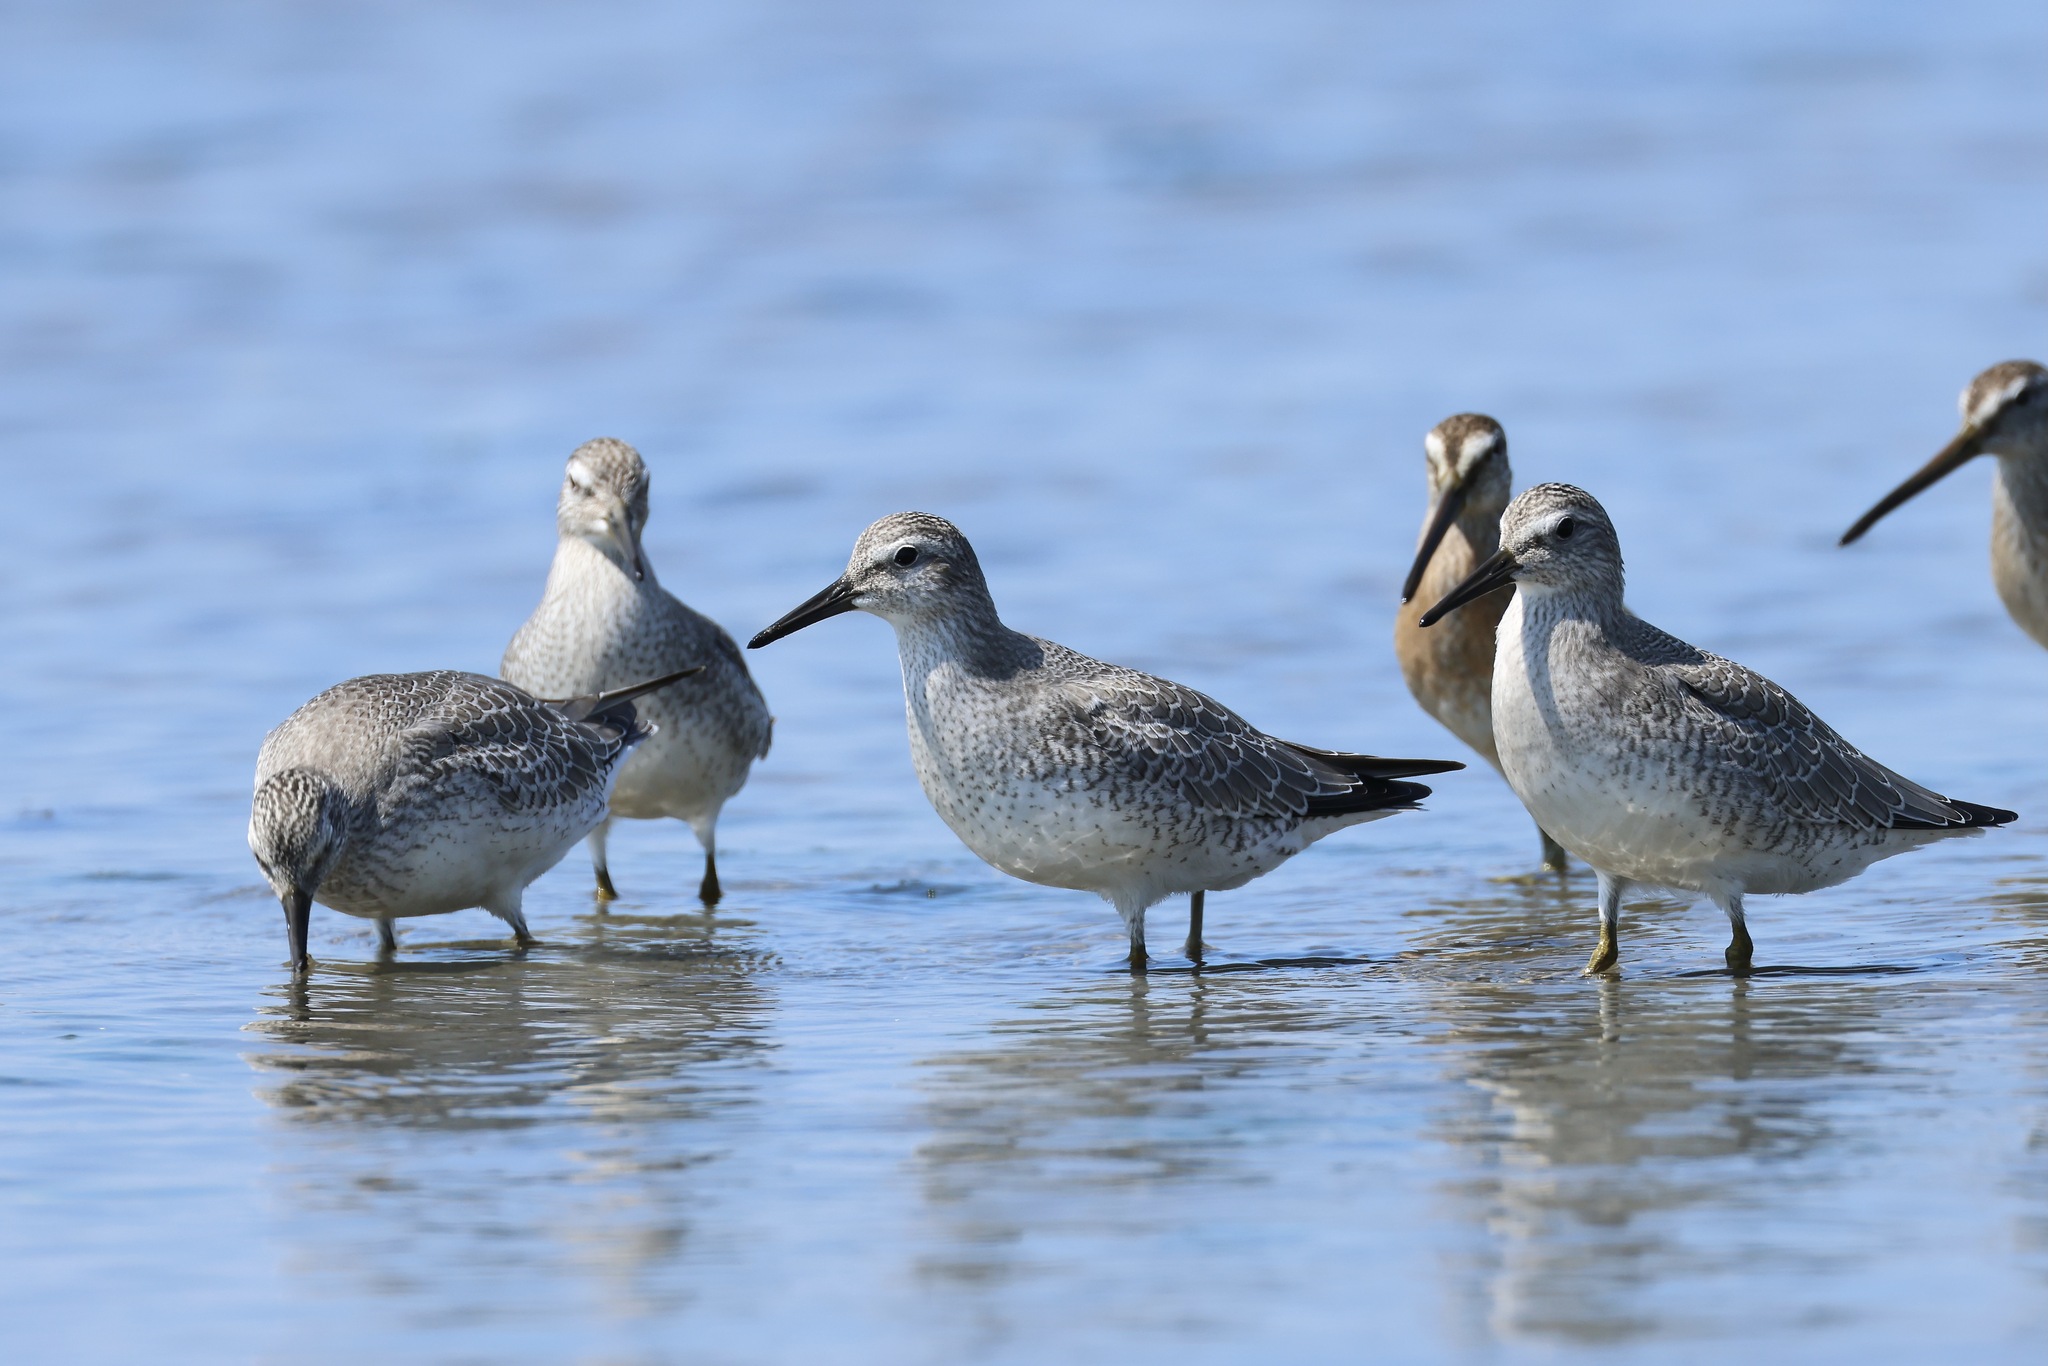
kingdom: Animalia
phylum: Chordata
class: Aves
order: Charadriiformes
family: Scolopacidae
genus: Calidris
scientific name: Calidris canutus
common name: Red knot
